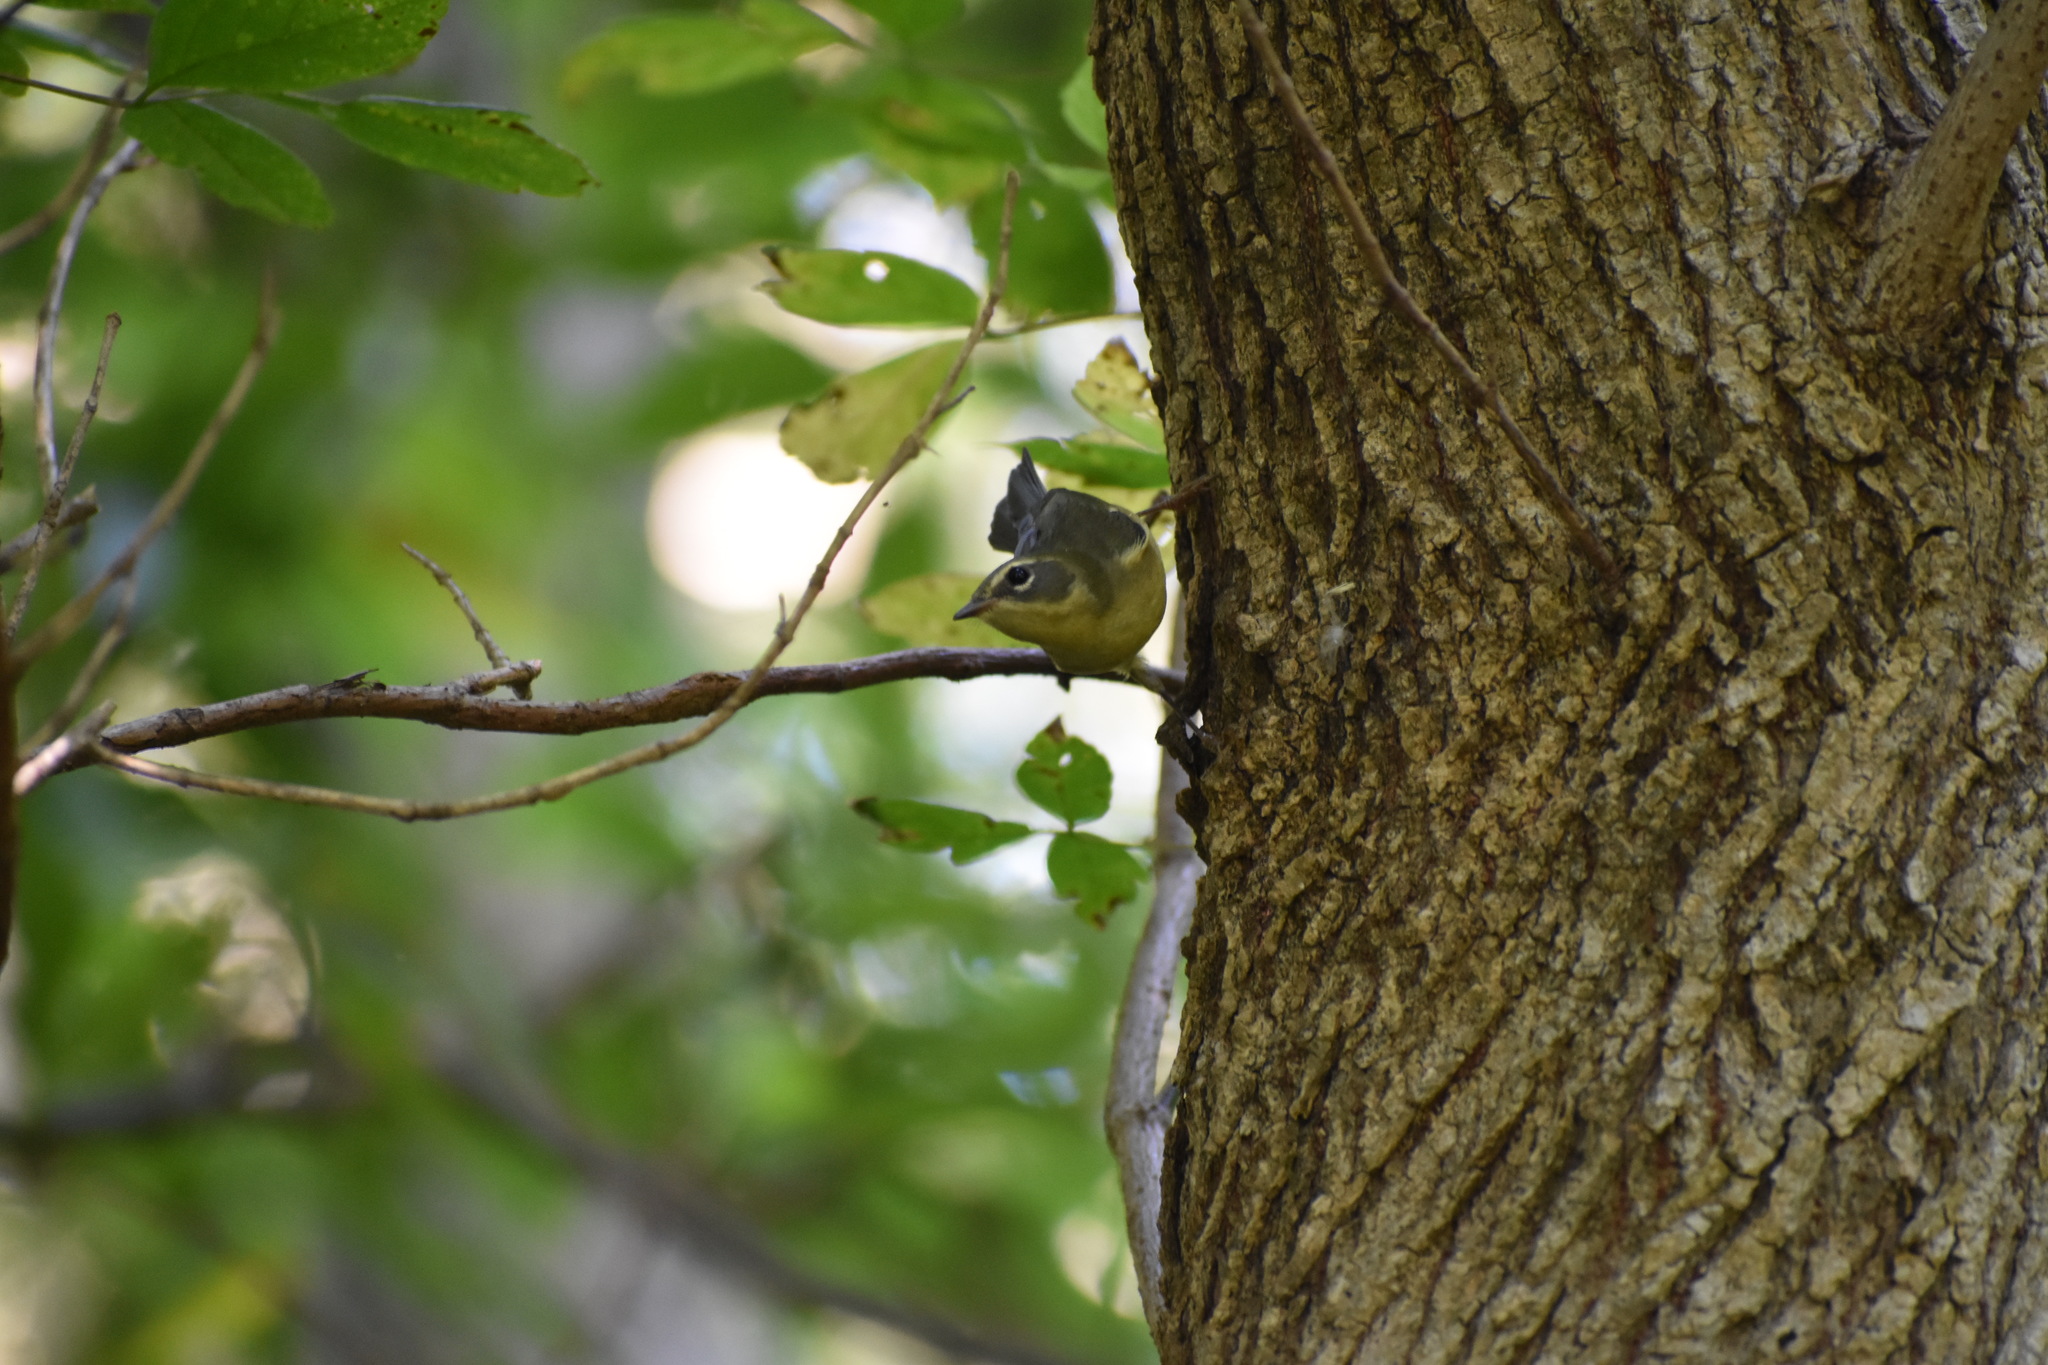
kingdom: Animalia
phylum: Chordata
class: Aves
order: Passeriformes
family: Parulidae
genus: Setophaga
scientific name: Setophaga caerulescens
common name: Black-throated blue warbler
